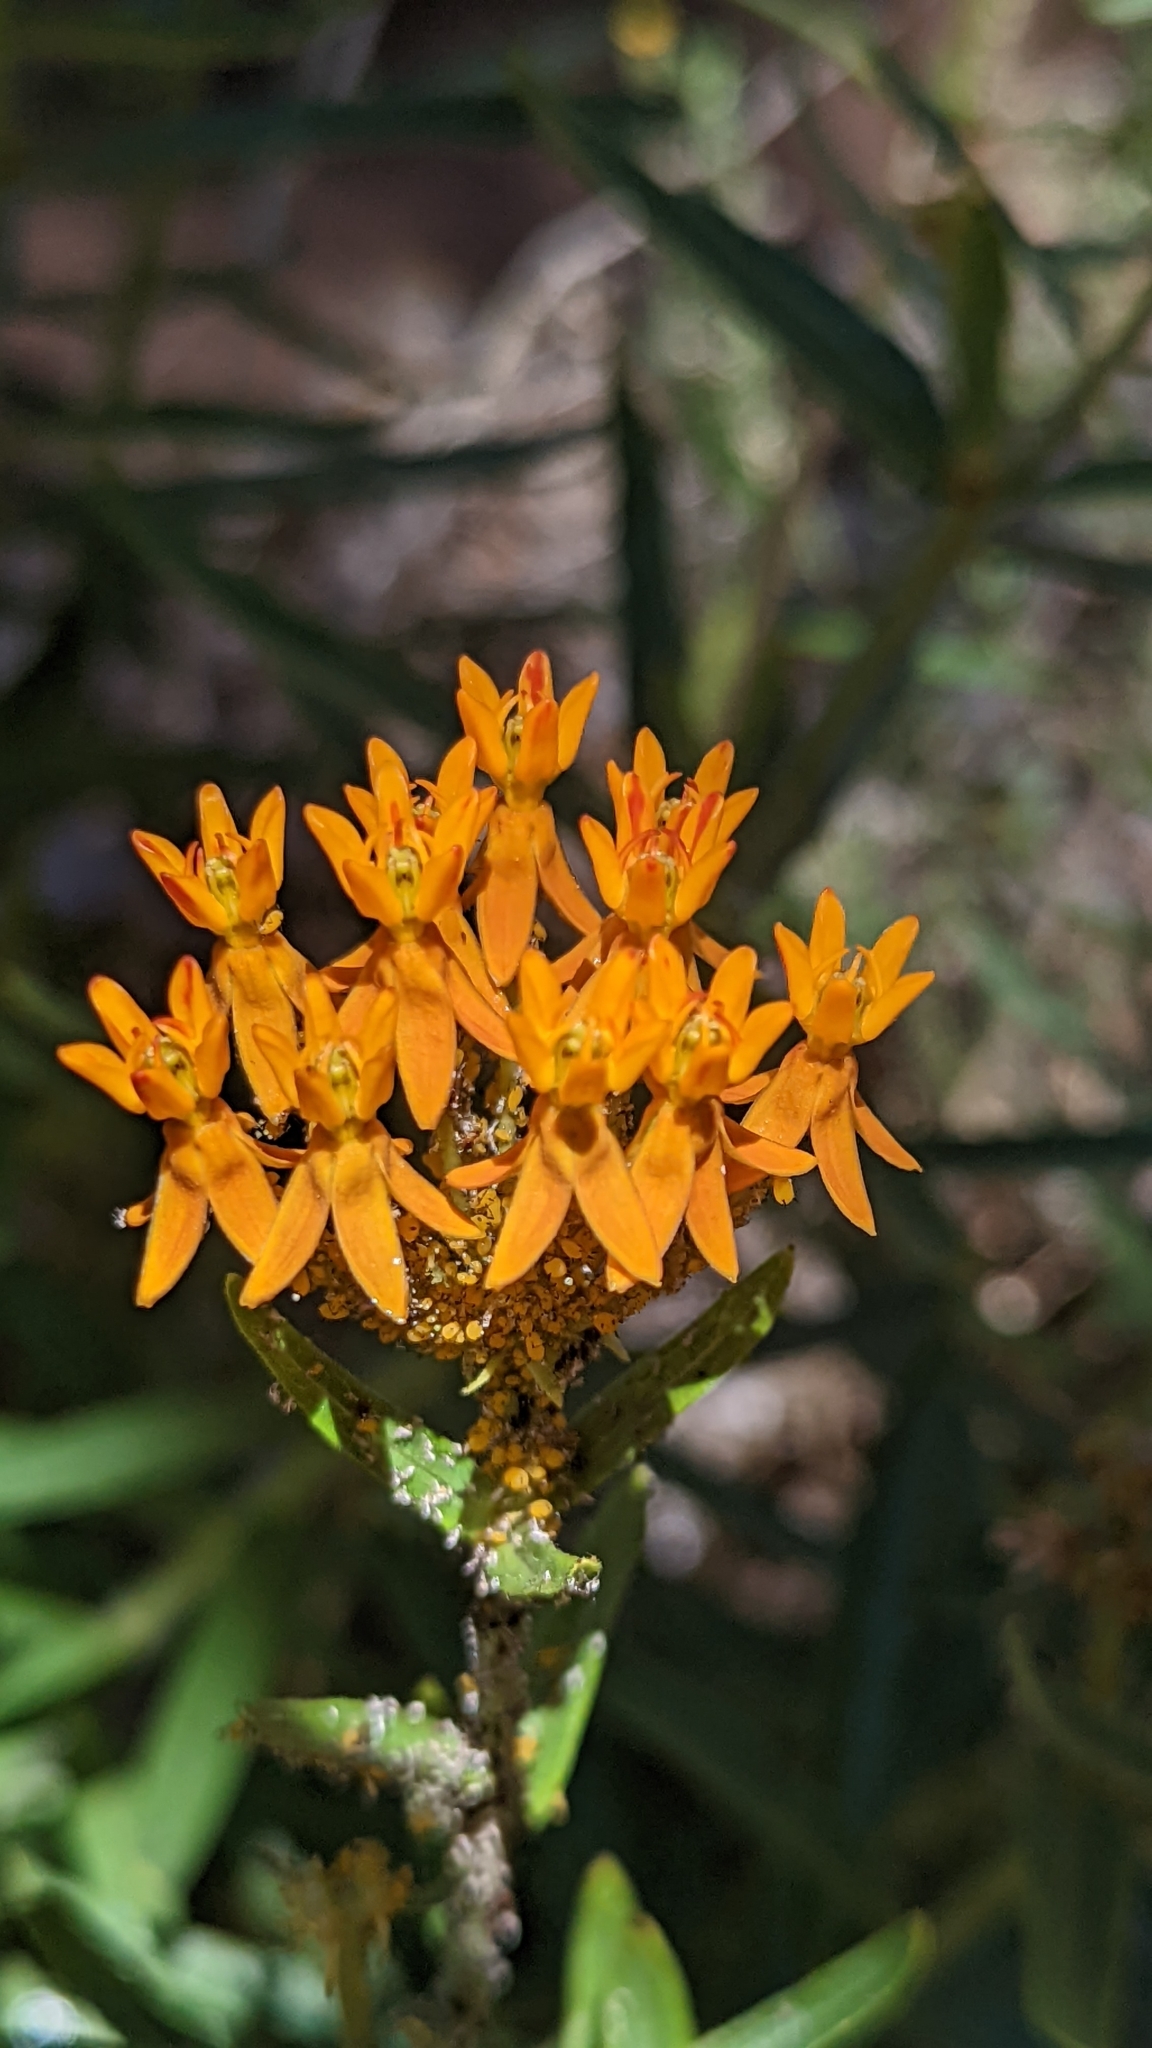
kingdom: Plantae
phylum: Tracheophyta
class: Magnoliopsida
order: Gentianales
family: Apocynaceae
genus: Asclepias
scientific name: Asclepias tuberosa
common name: Butterfly milkweed
